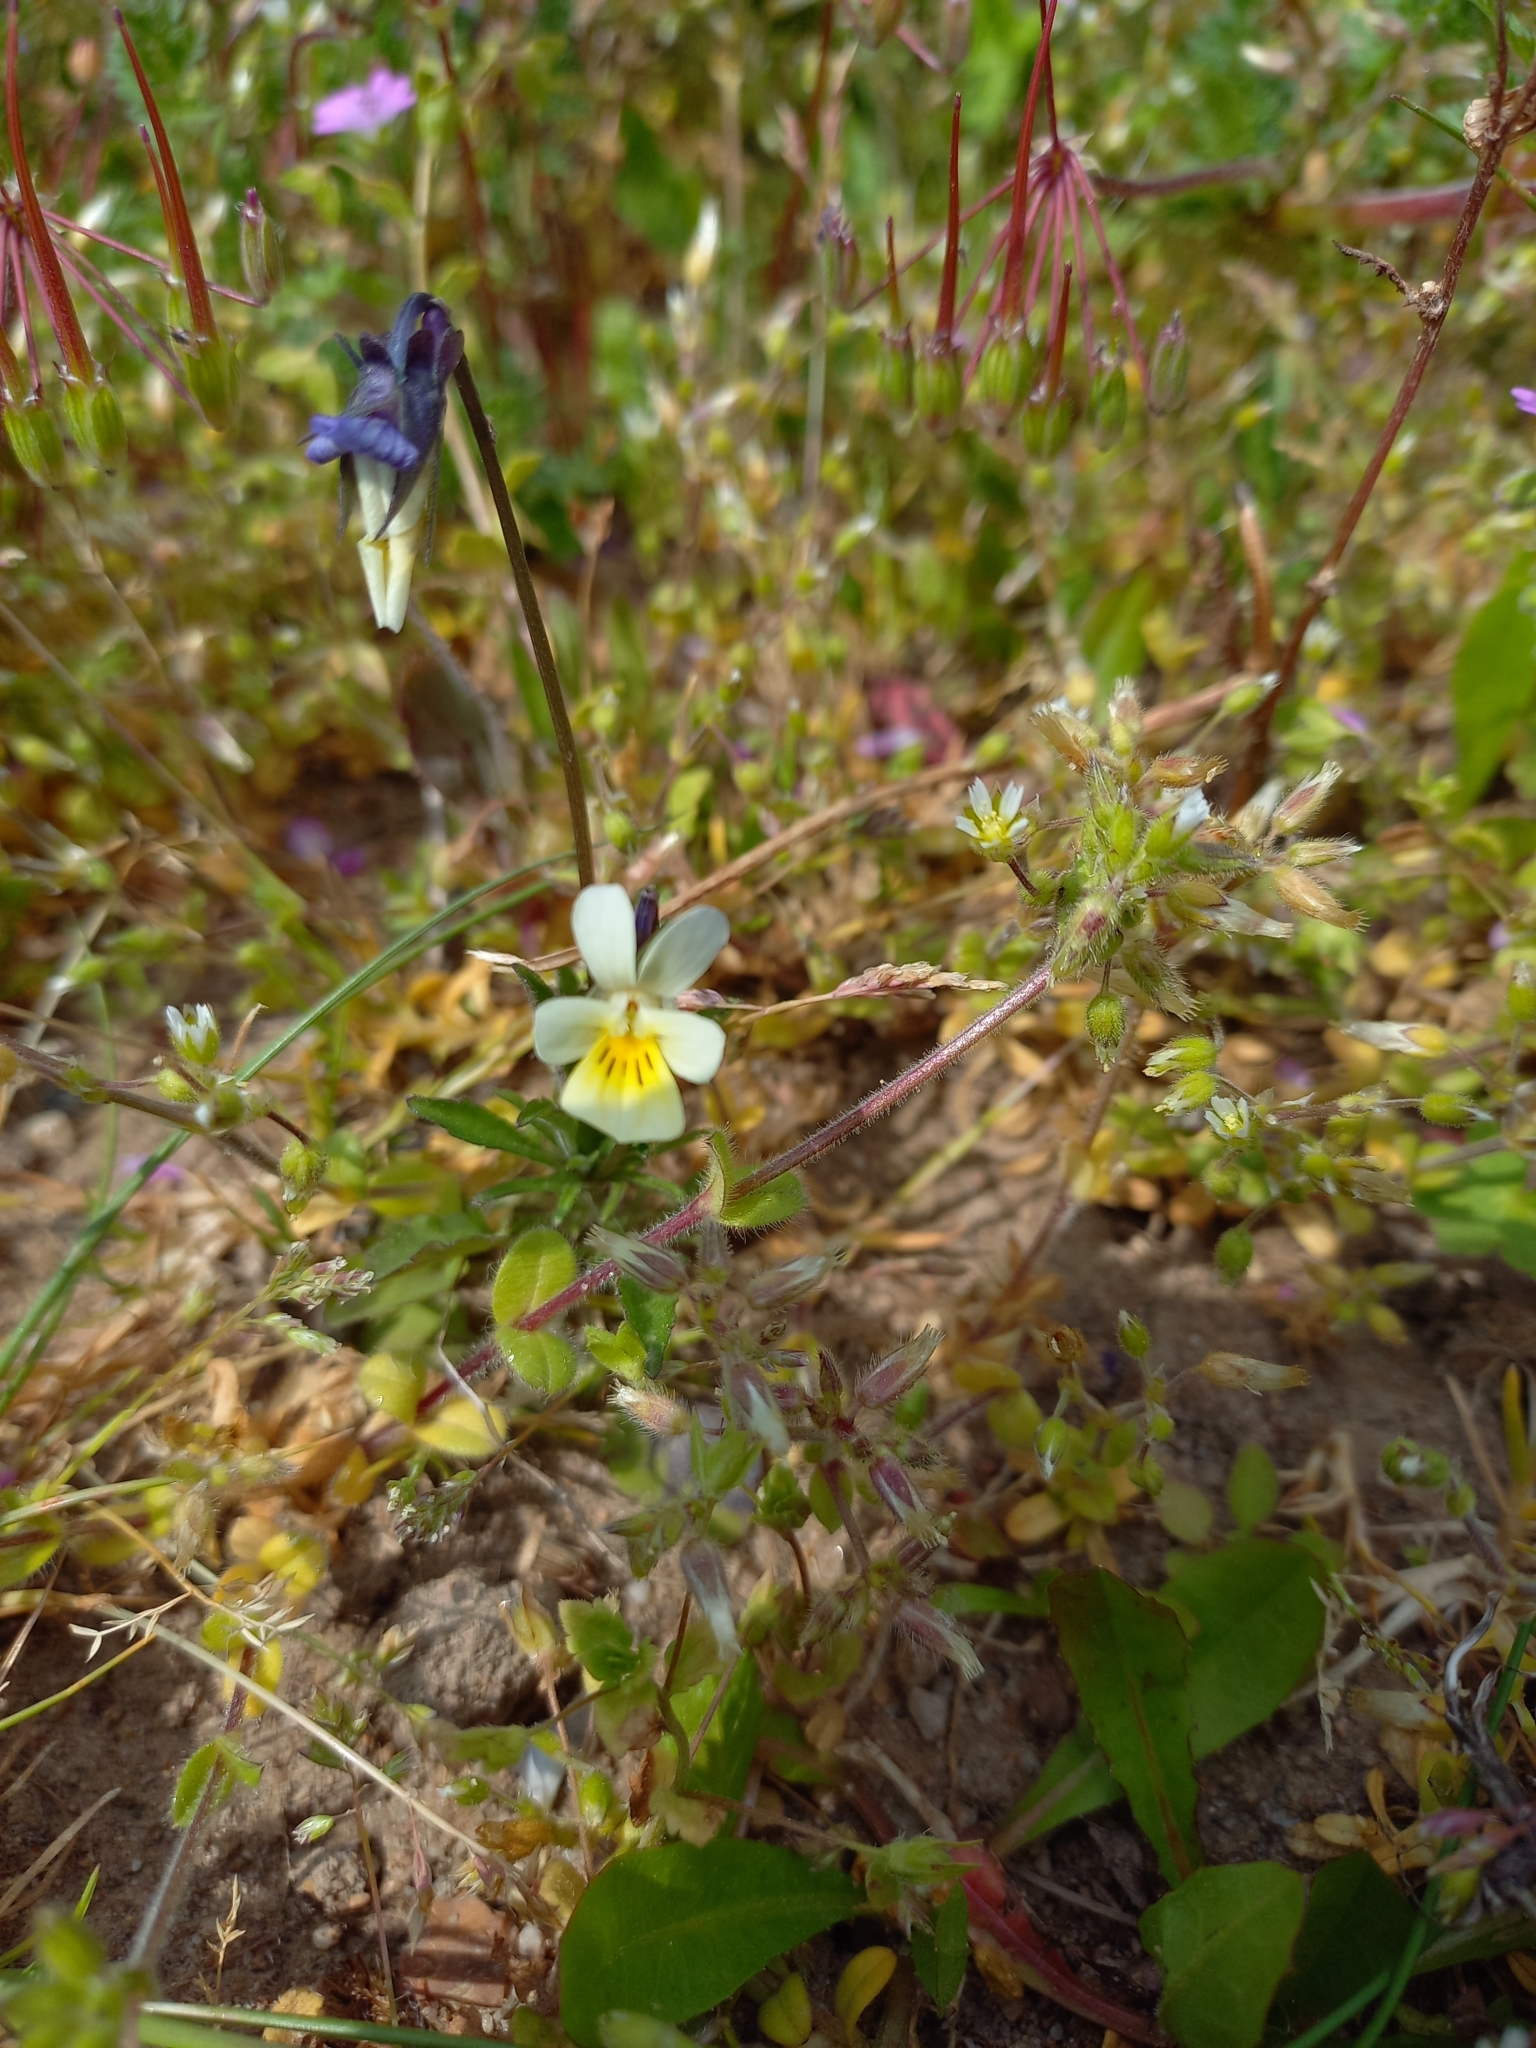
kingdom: Plantae
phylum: Tracheophyta
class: Magnoliopsida
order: Malpighiales
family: Violaceae
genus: Viola
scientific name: Viola arvensis
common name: Field pansy
